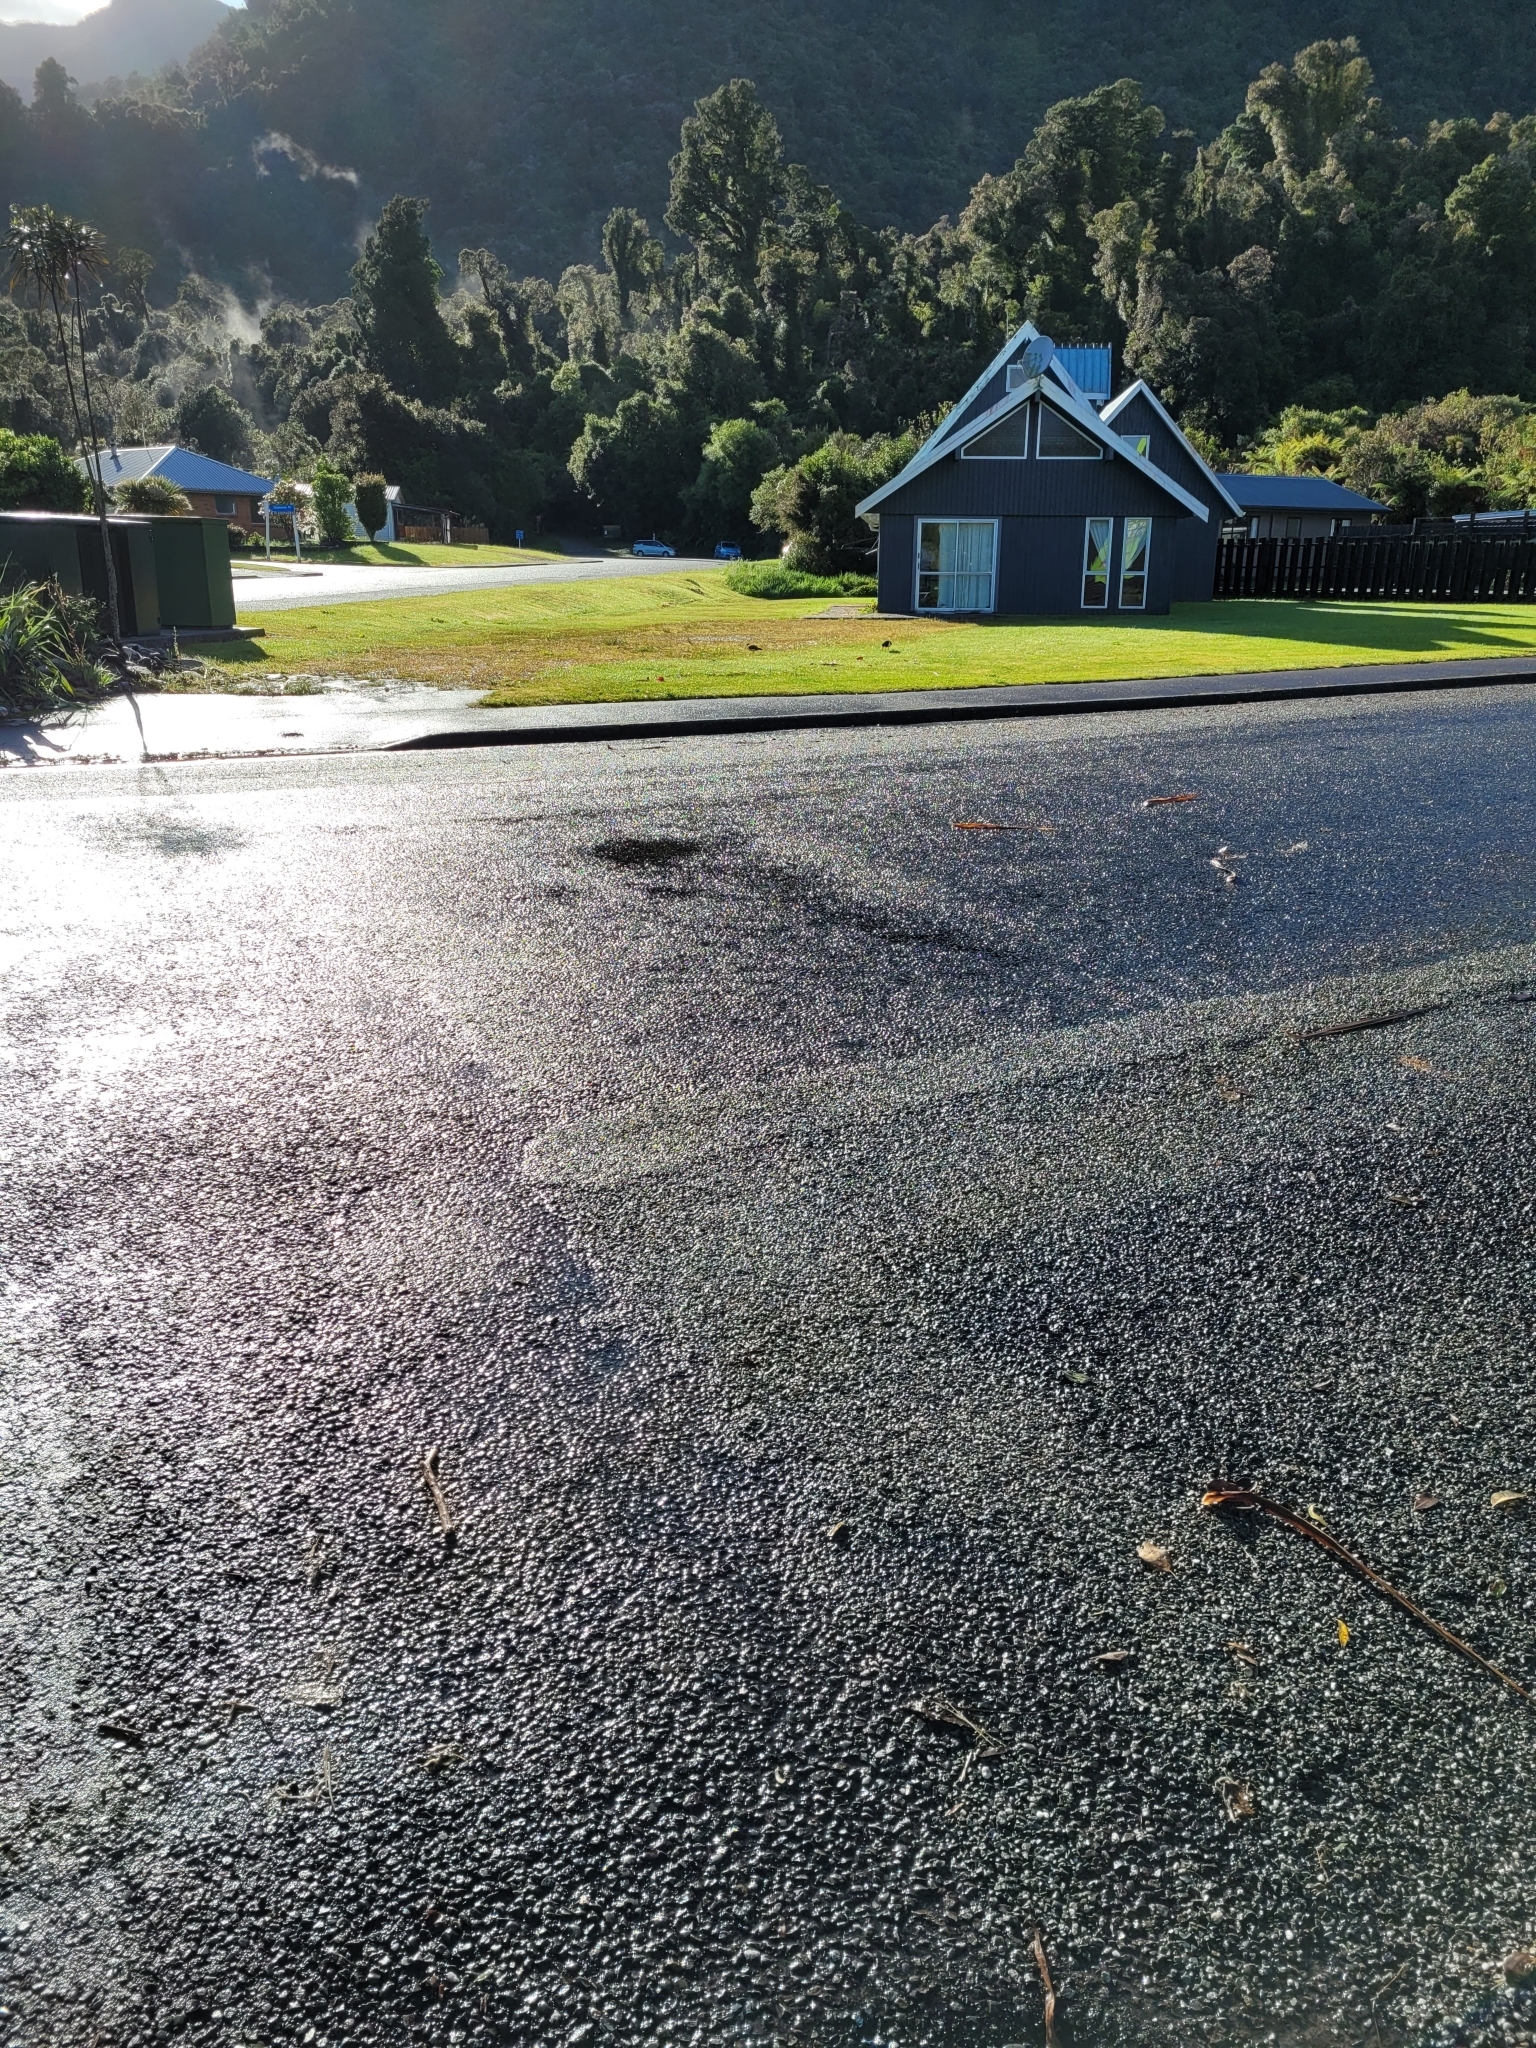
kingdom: Animalia
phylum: Chordata
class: Aves
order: Charadriiformes
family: Haematopodidae
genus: Haematopus
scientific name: Haematopus finschi
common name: South island oystercatcher
